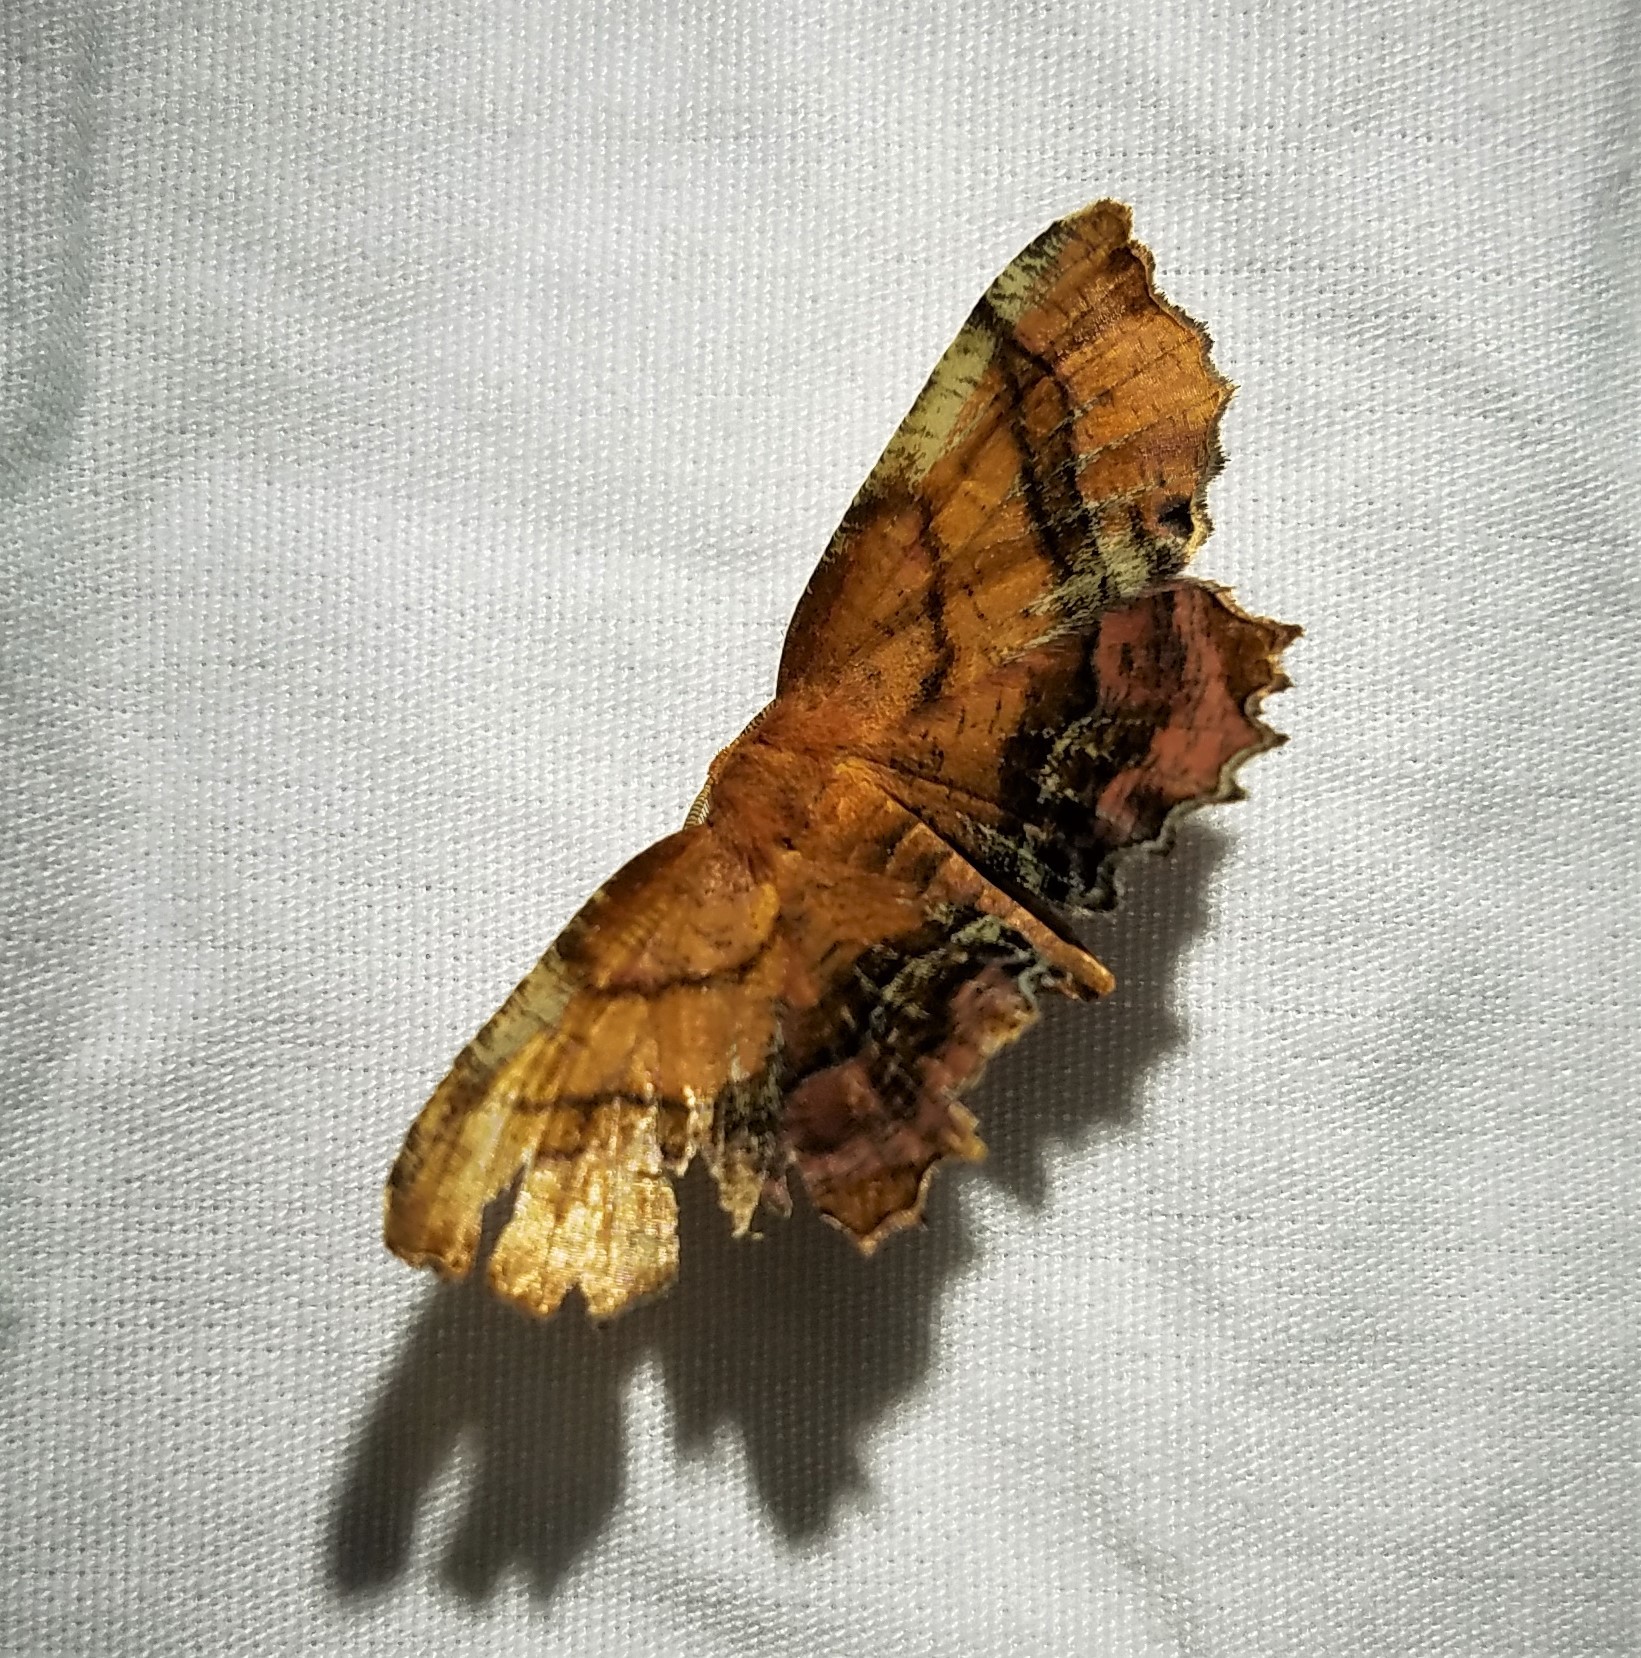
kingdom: Animalia
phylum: Arthropoda
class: Insecta
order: Lepidoptera
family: Geometridae
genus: Cepphis
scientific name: Cepphis armataria
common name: Scallop moth
